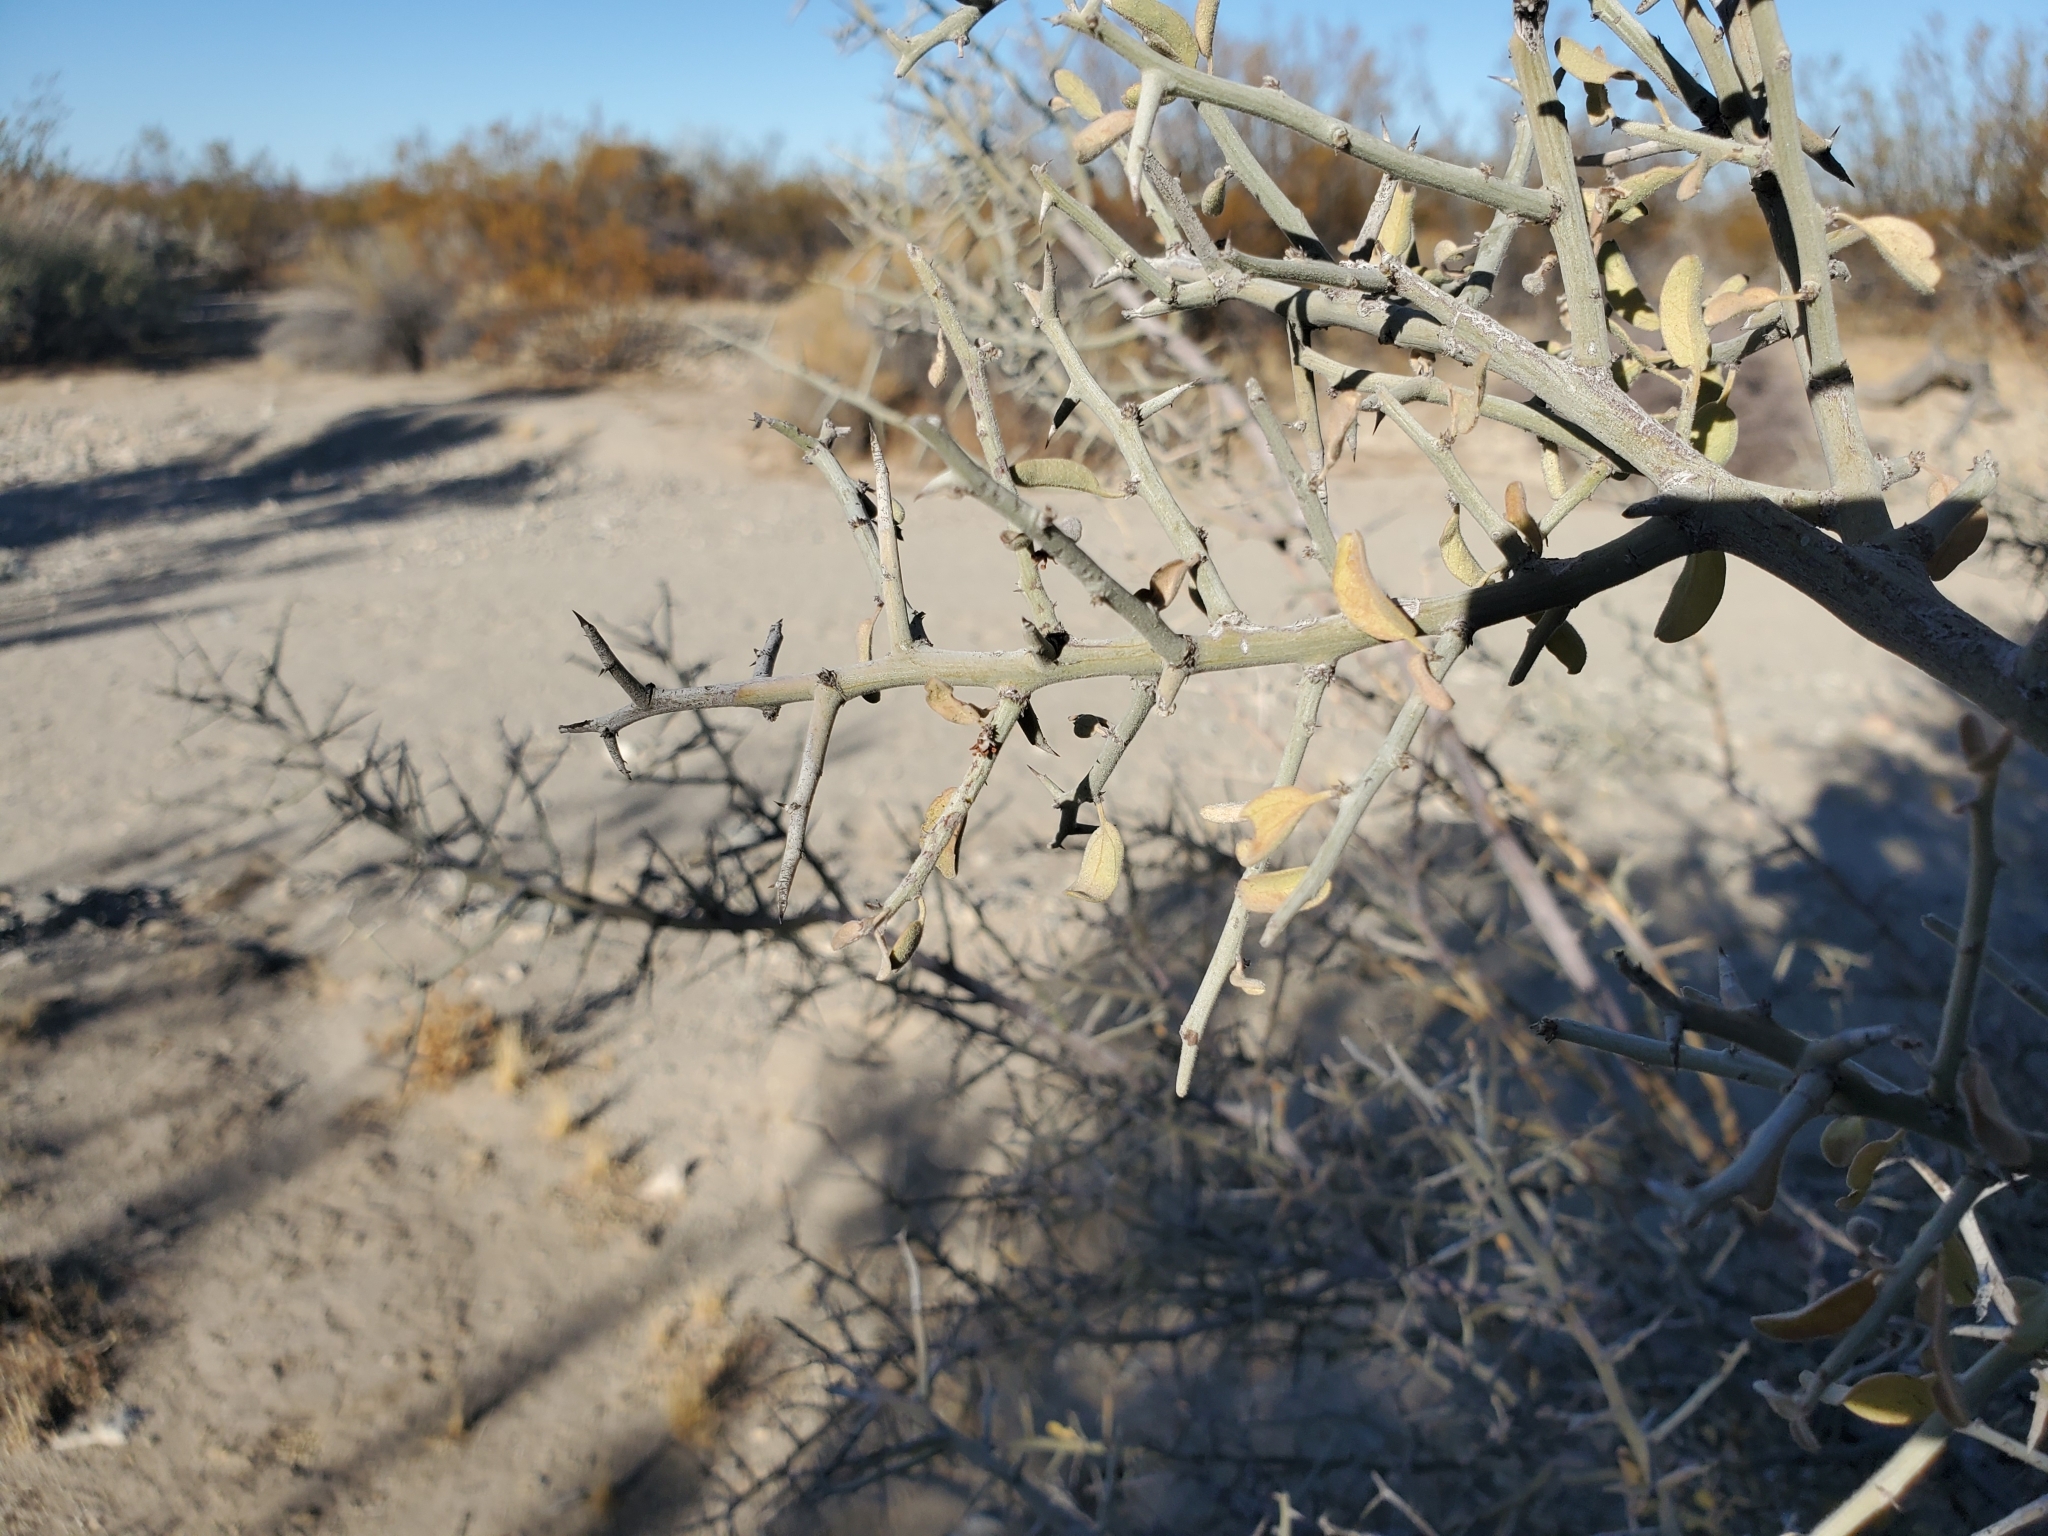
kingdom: Plantae
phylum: Tracheophyta
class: Magnoliopsida
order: Rosales
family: Rhamnaceae
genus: Sarcomphalus
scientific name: Sarcomphalus obtusifolius
